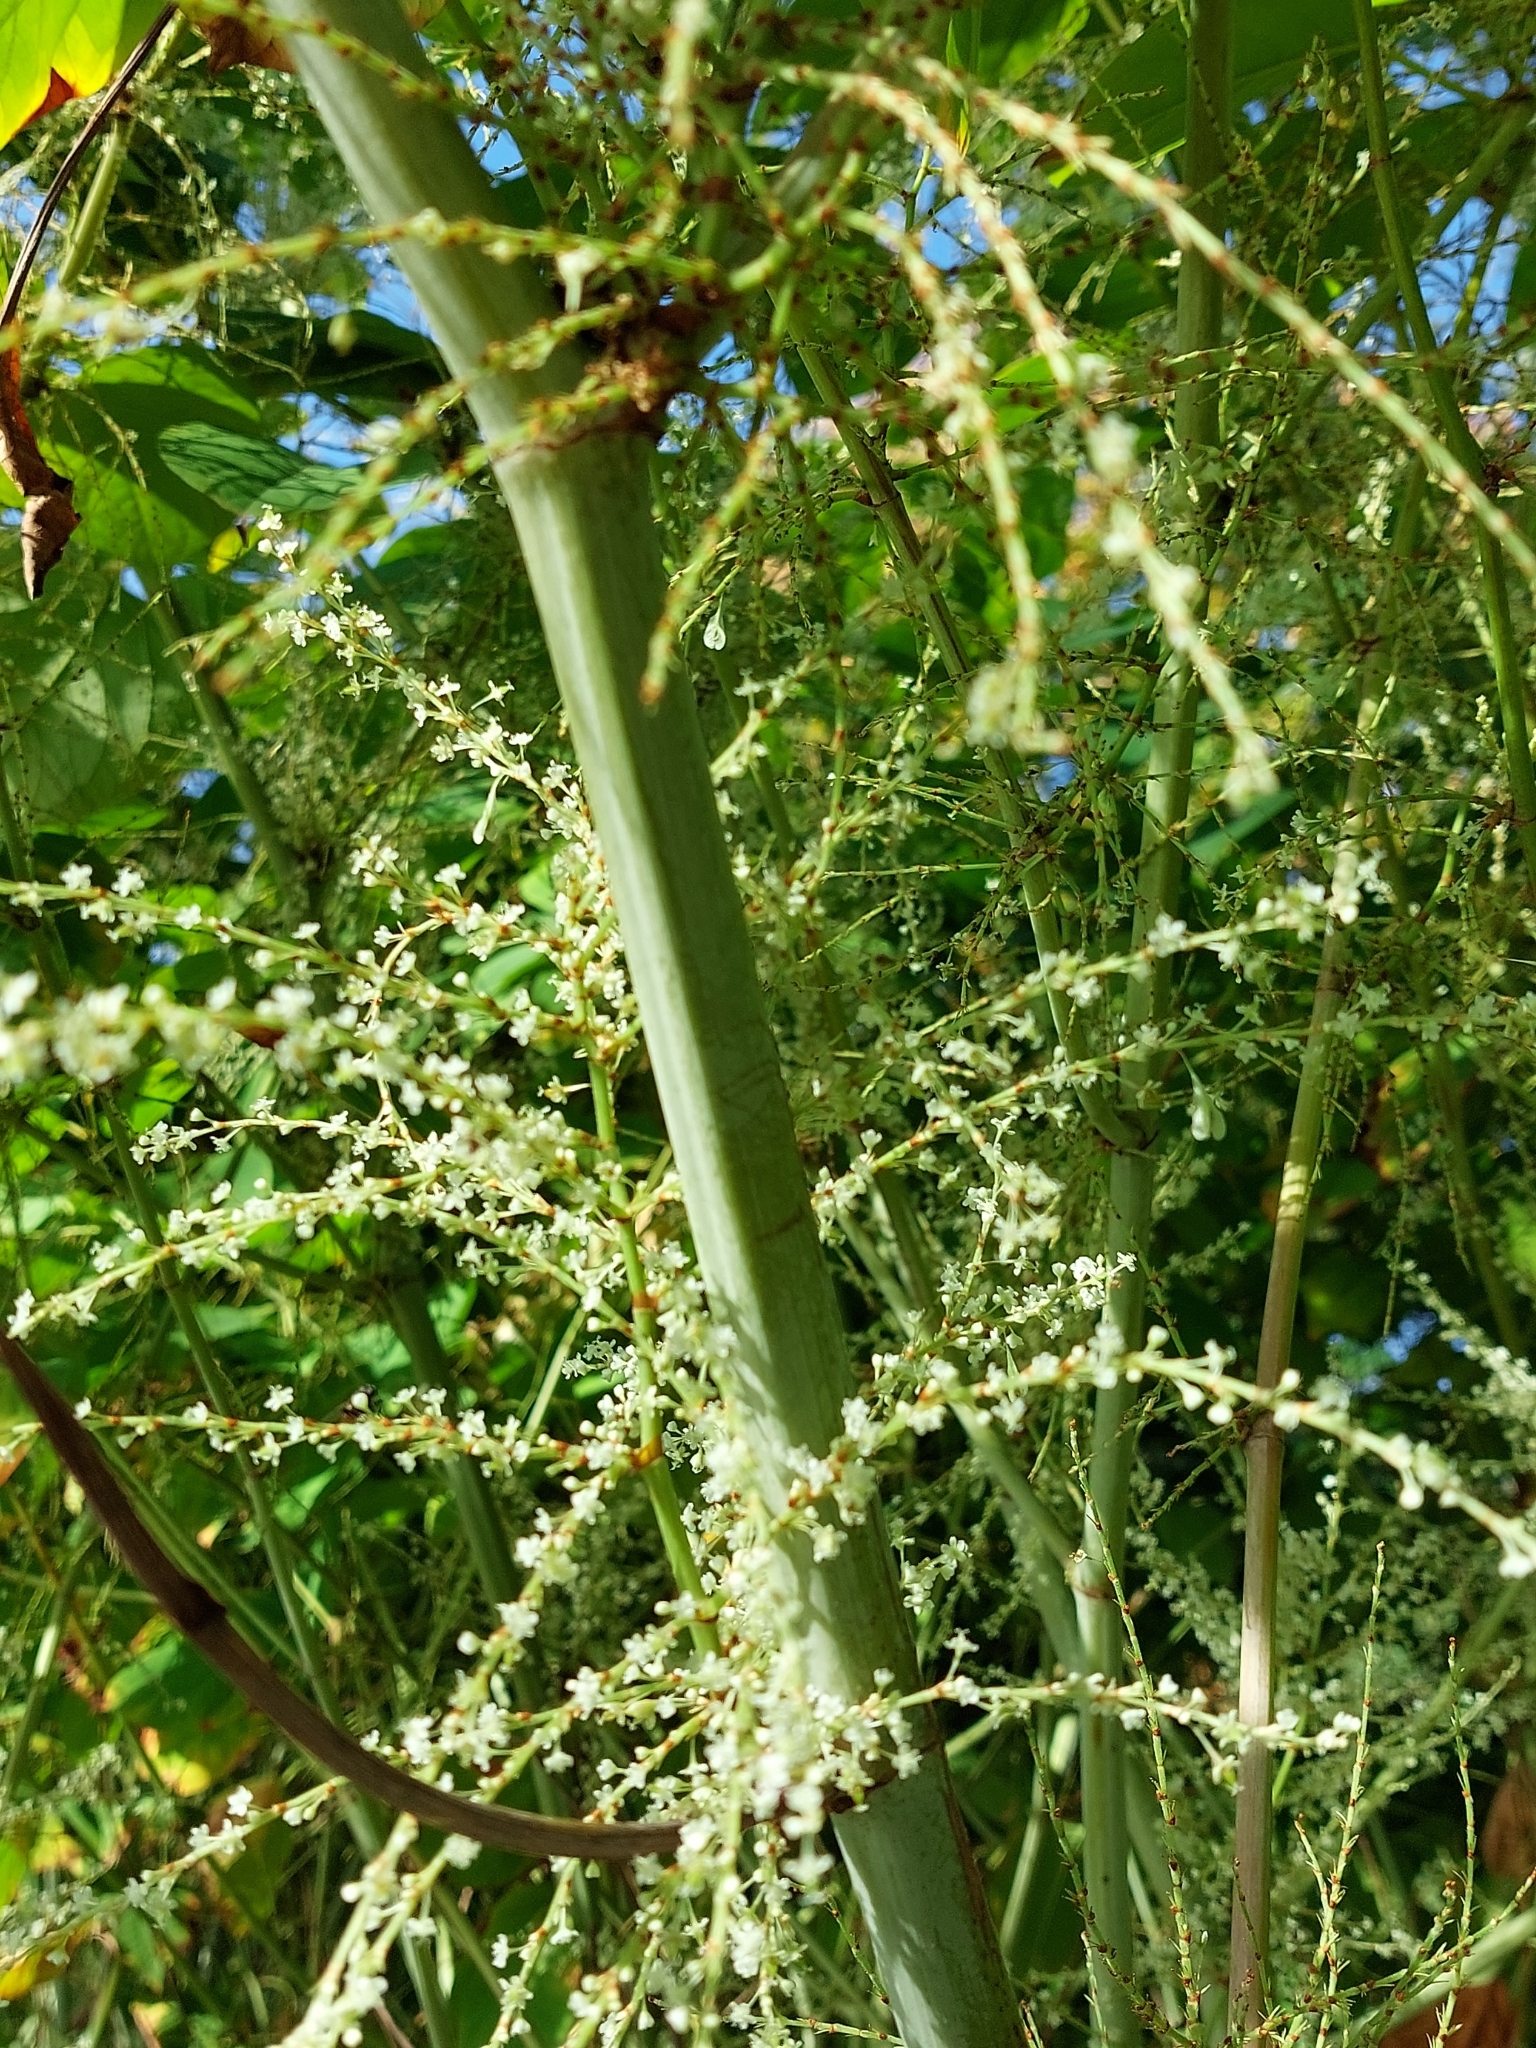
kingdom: Plantae
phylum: Tracheophyta
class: Magnoliopsida
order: Caryophyllales
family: Polygonaceae
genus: Reynoutria
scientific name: Reynoutria japonica
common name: Japanese knotweed
